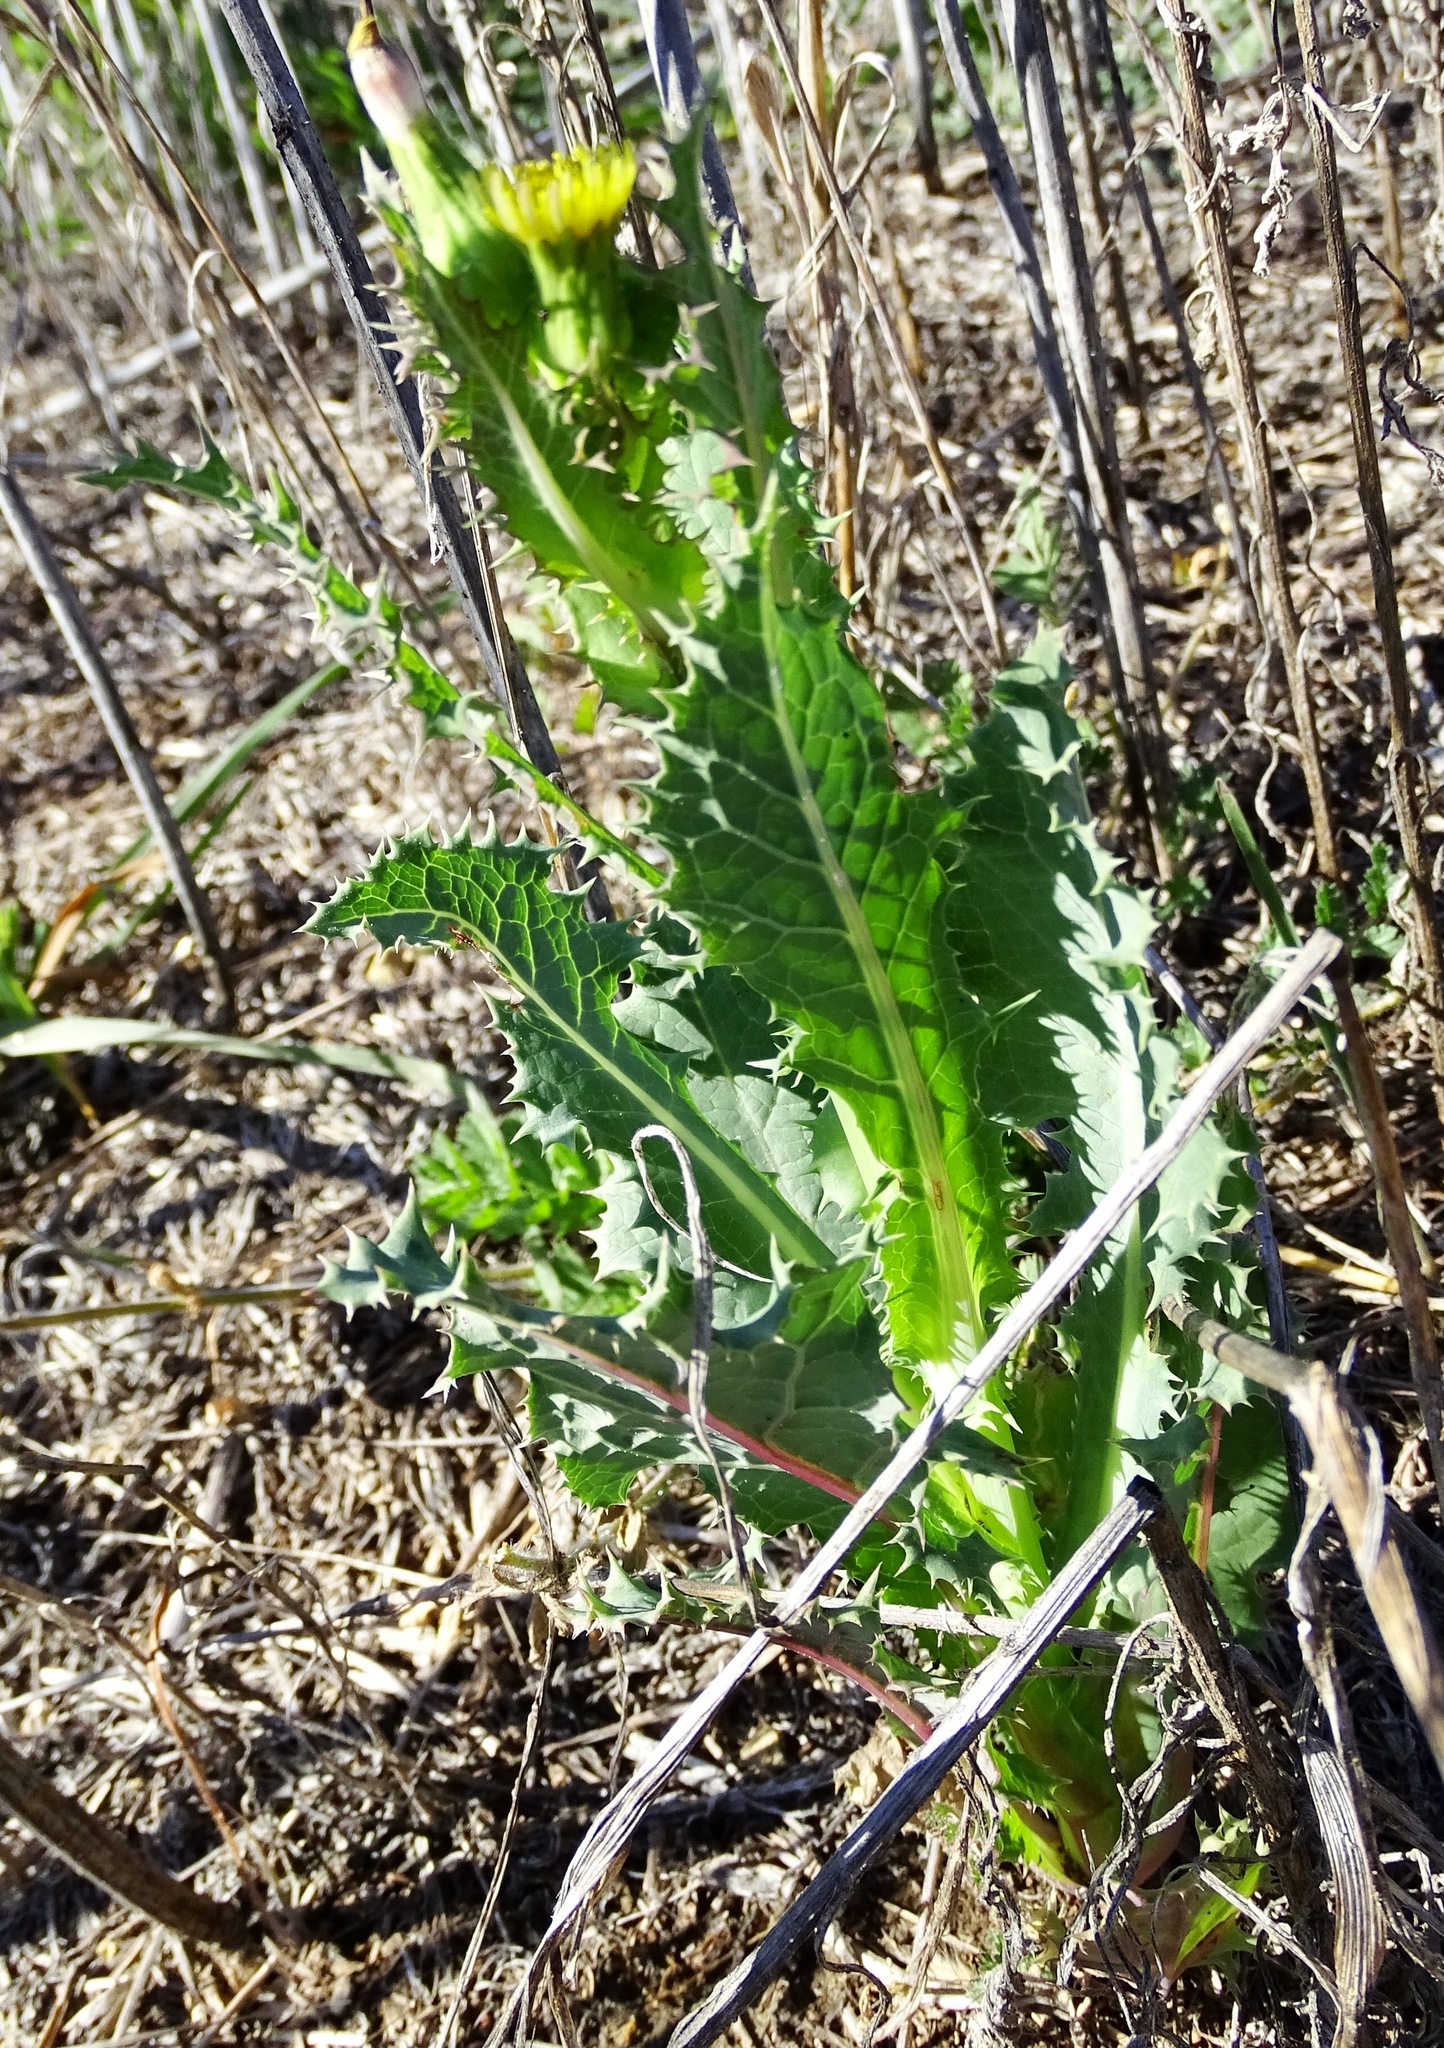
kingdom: Plantae
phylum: Tracheophyta
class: Magnoliopsida
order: Asterales
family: Asteraceae
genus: Sonchus
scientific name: Sonchus asper
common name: Prickly sow-thistle
